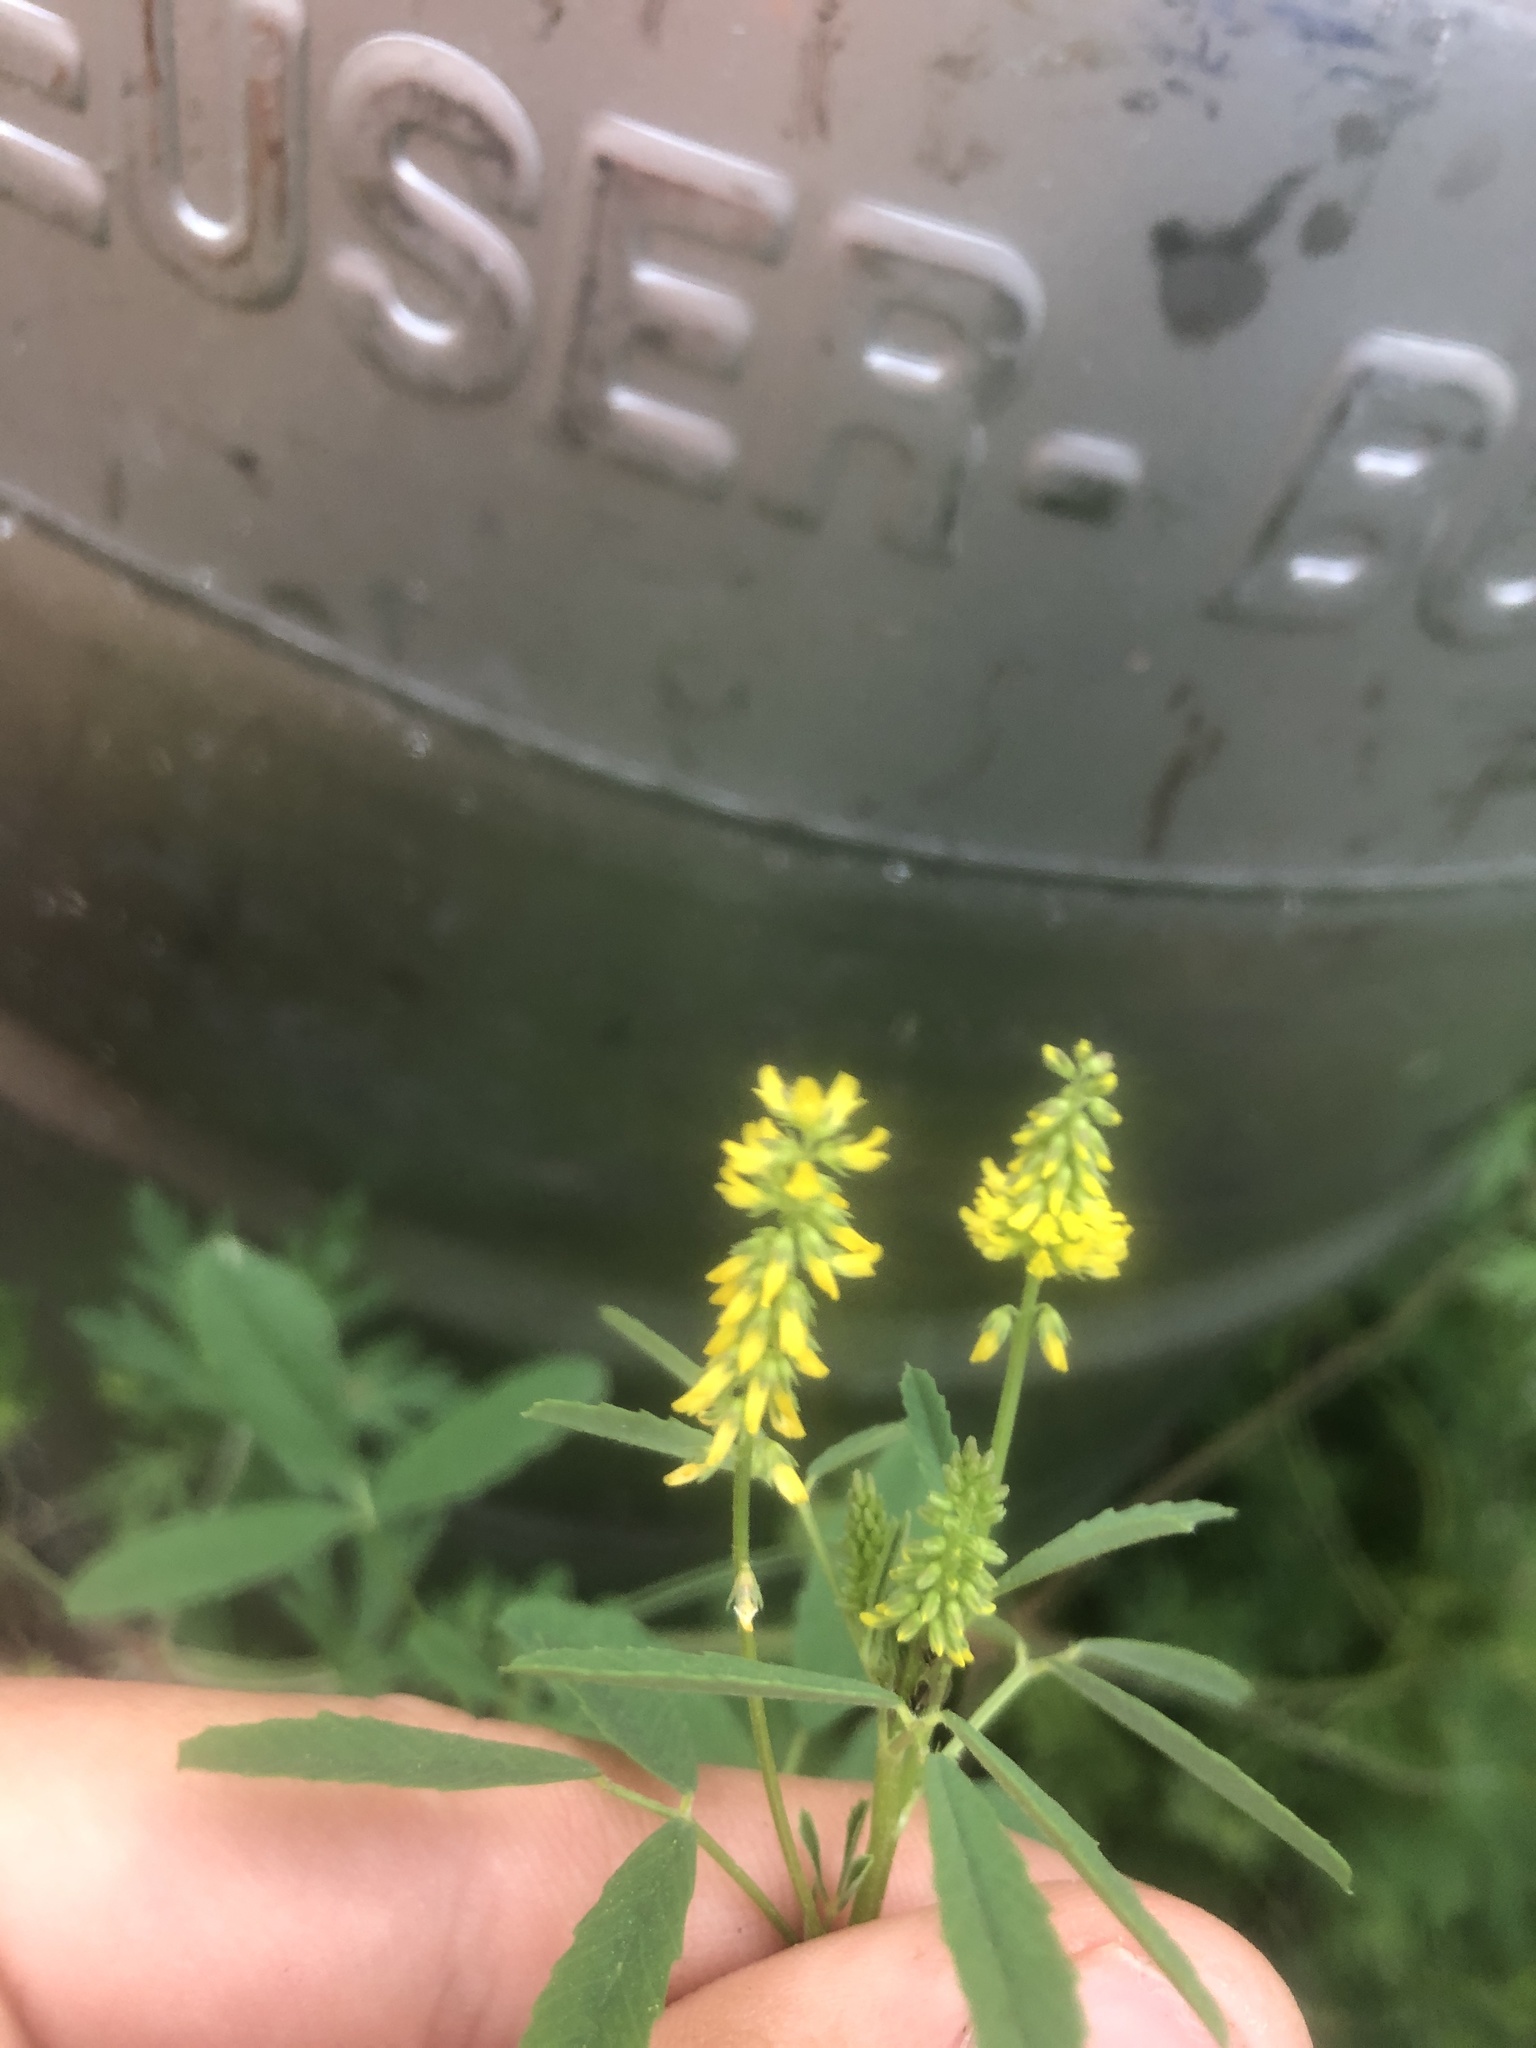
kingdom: Plantae
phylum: Tracheophyta
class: Magnoliopsida
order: Fabales
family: Fabaceae
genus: Melilotus
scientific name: Melilotus indicus
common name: Small melilot
